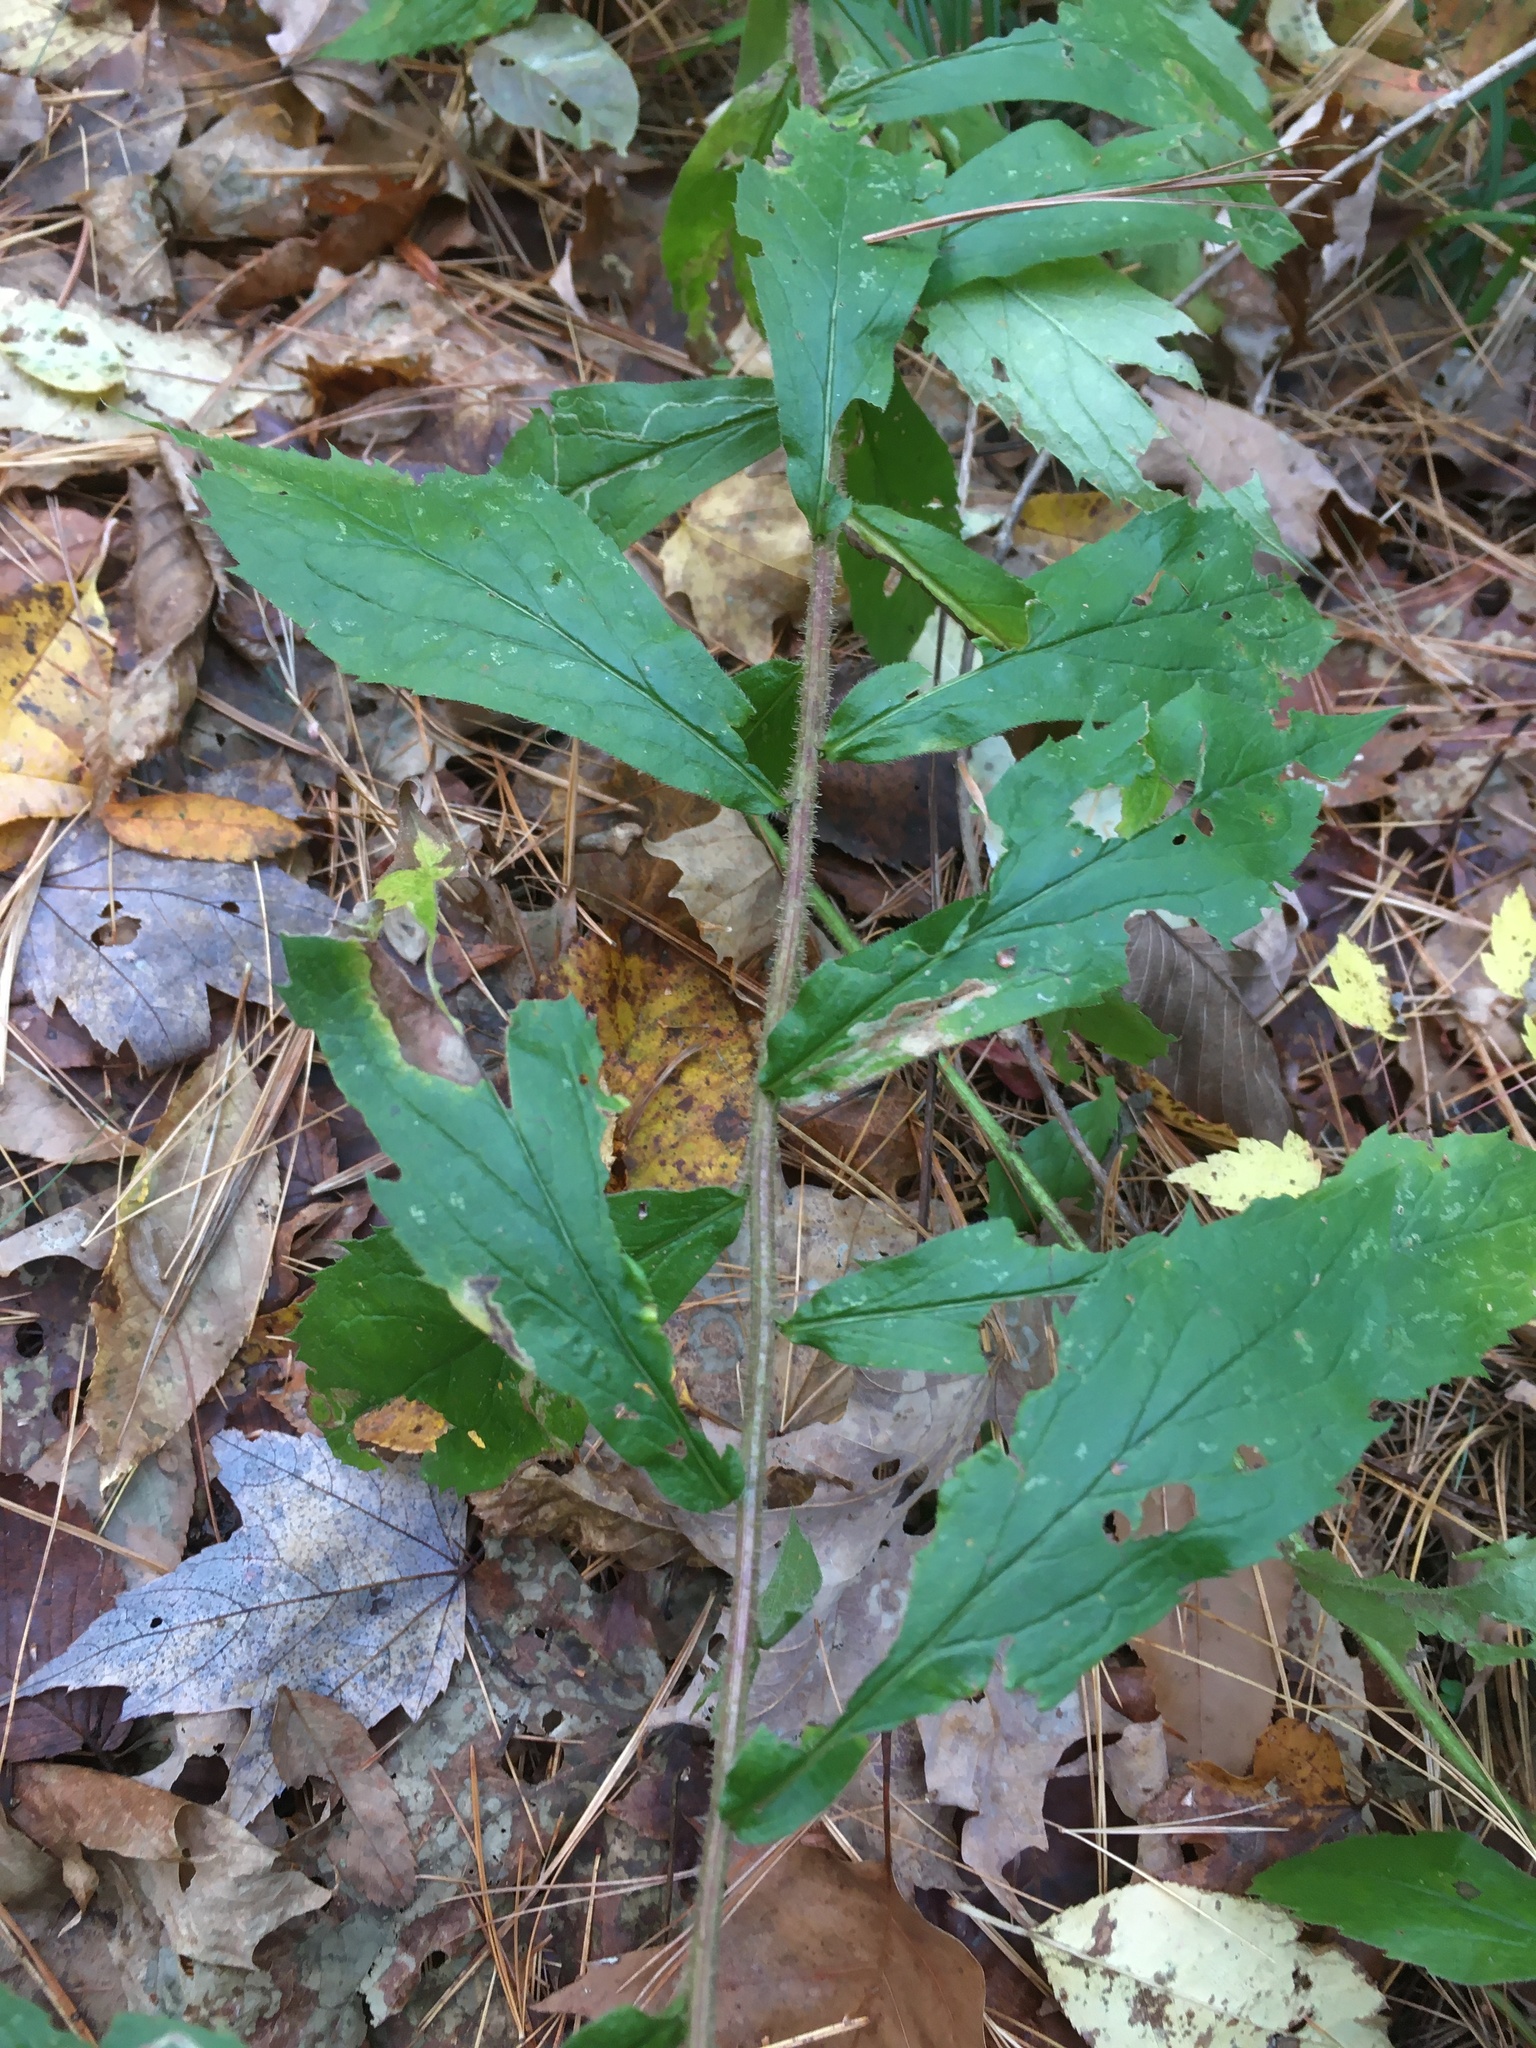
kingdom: Plantae
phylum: Tracheophyta
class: Magnoliopsida
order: Asterales
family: Asteraceae
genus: Solidago
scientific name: Solidago rugosa
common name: Rough-stemmed goldenrod
